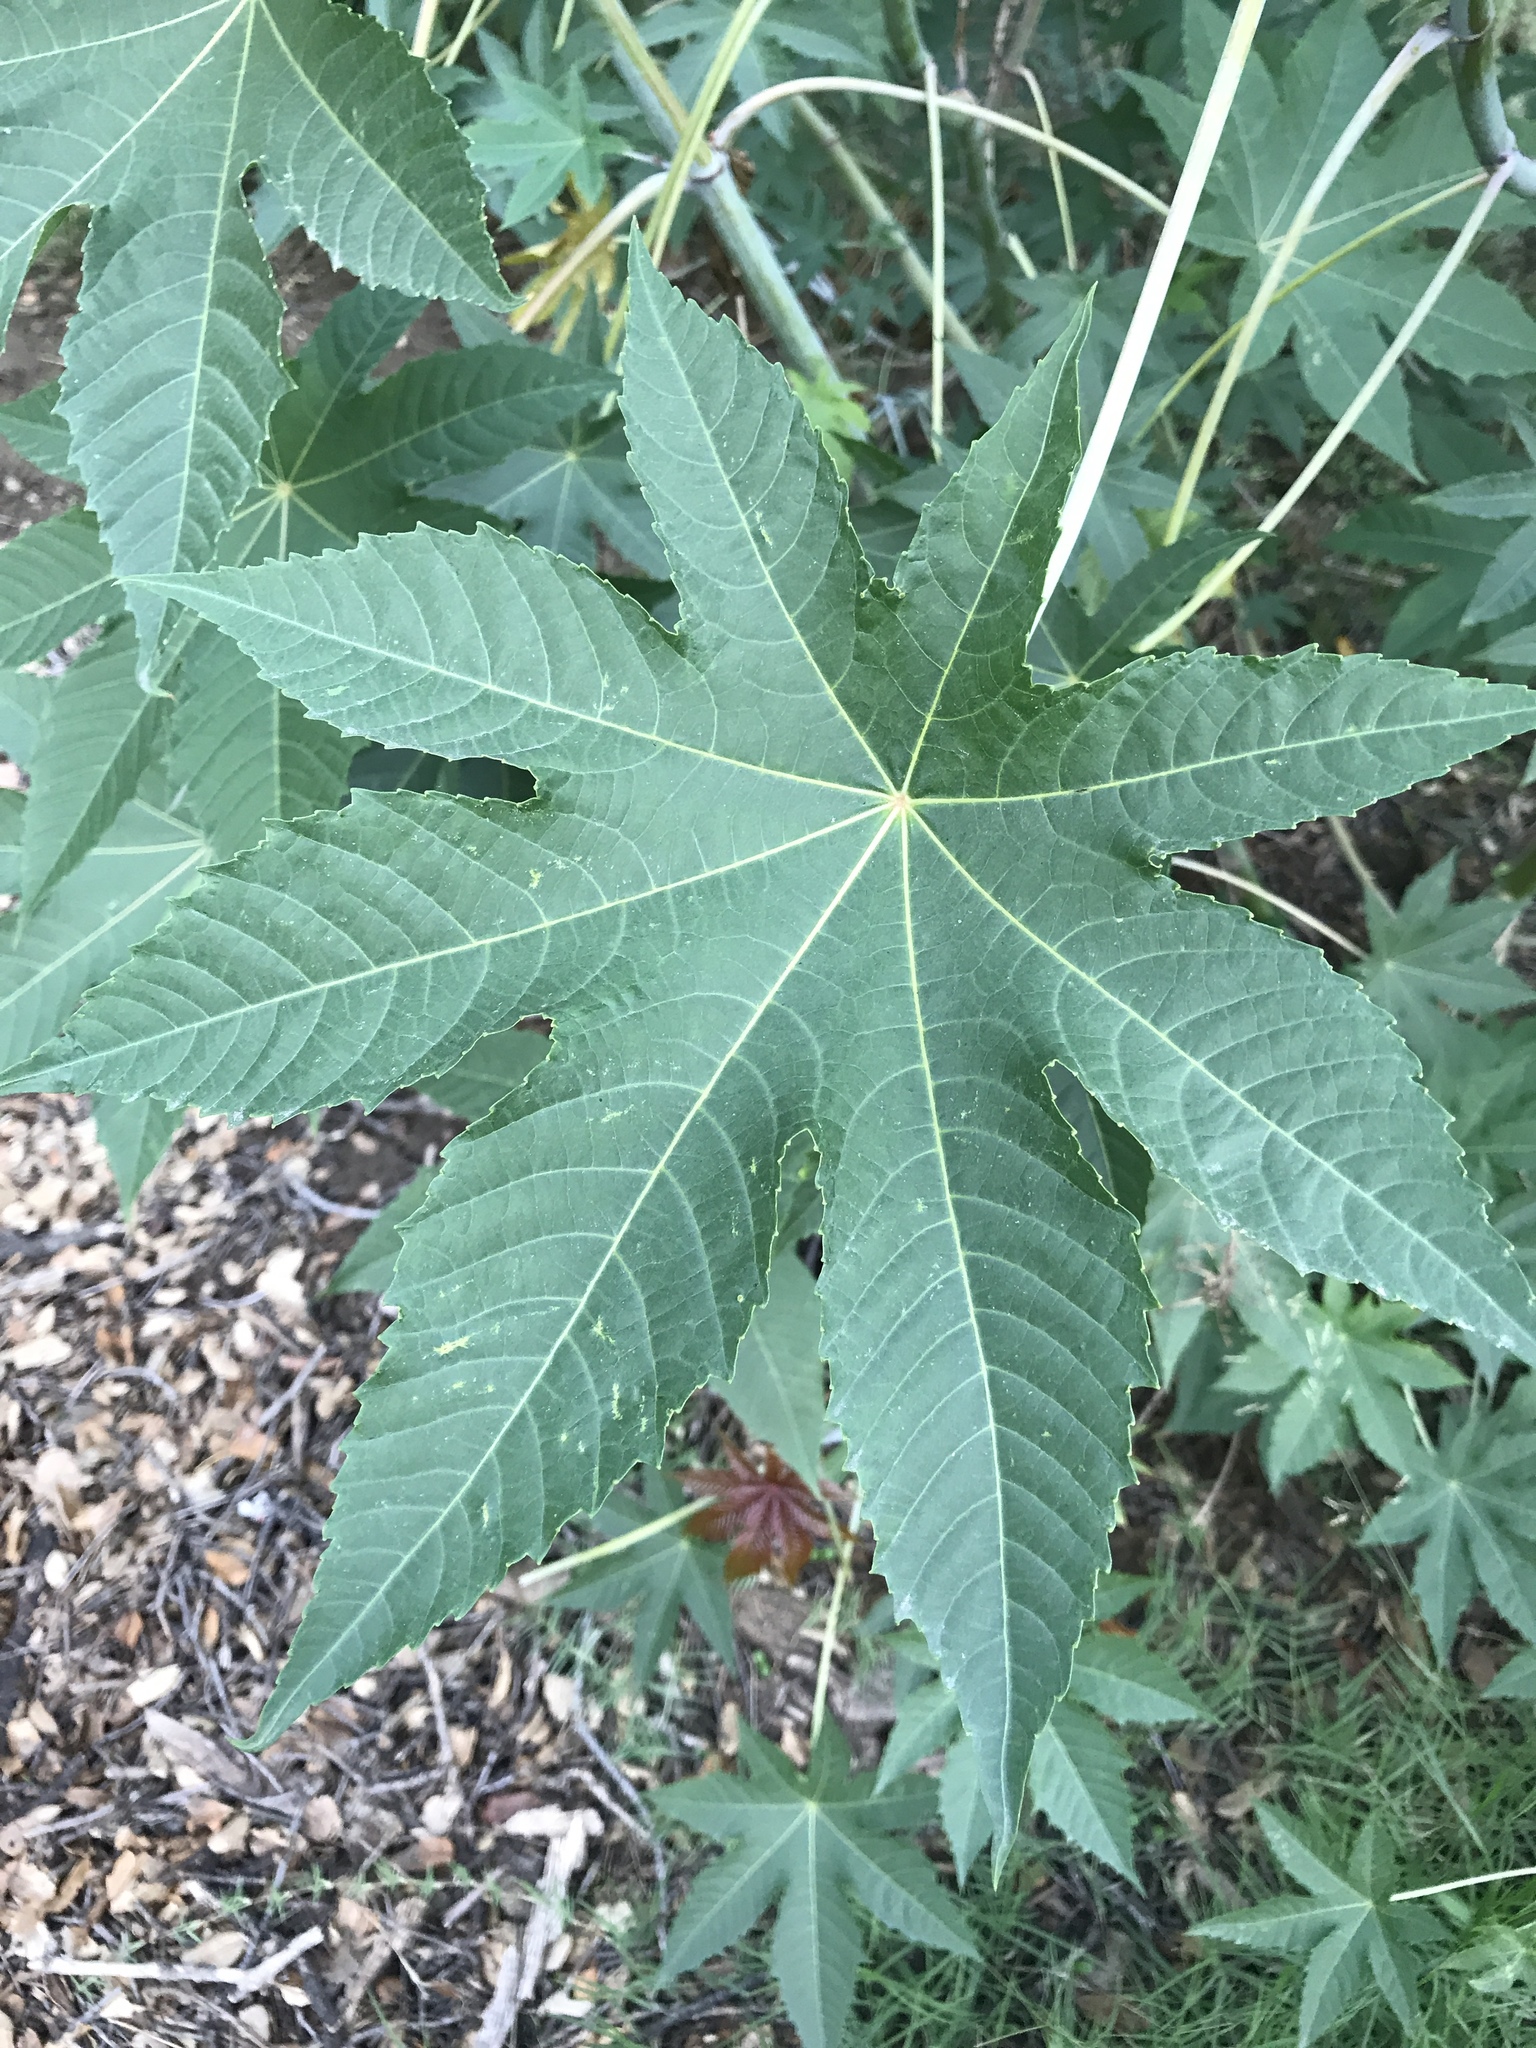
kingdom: Plantae
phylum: Tracheophyta
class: Magnoliopsida
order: Malpighiales
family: Euphorbiaceae
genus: Ricinus
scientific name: Ricinus communis
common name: Castor-oil-plant
